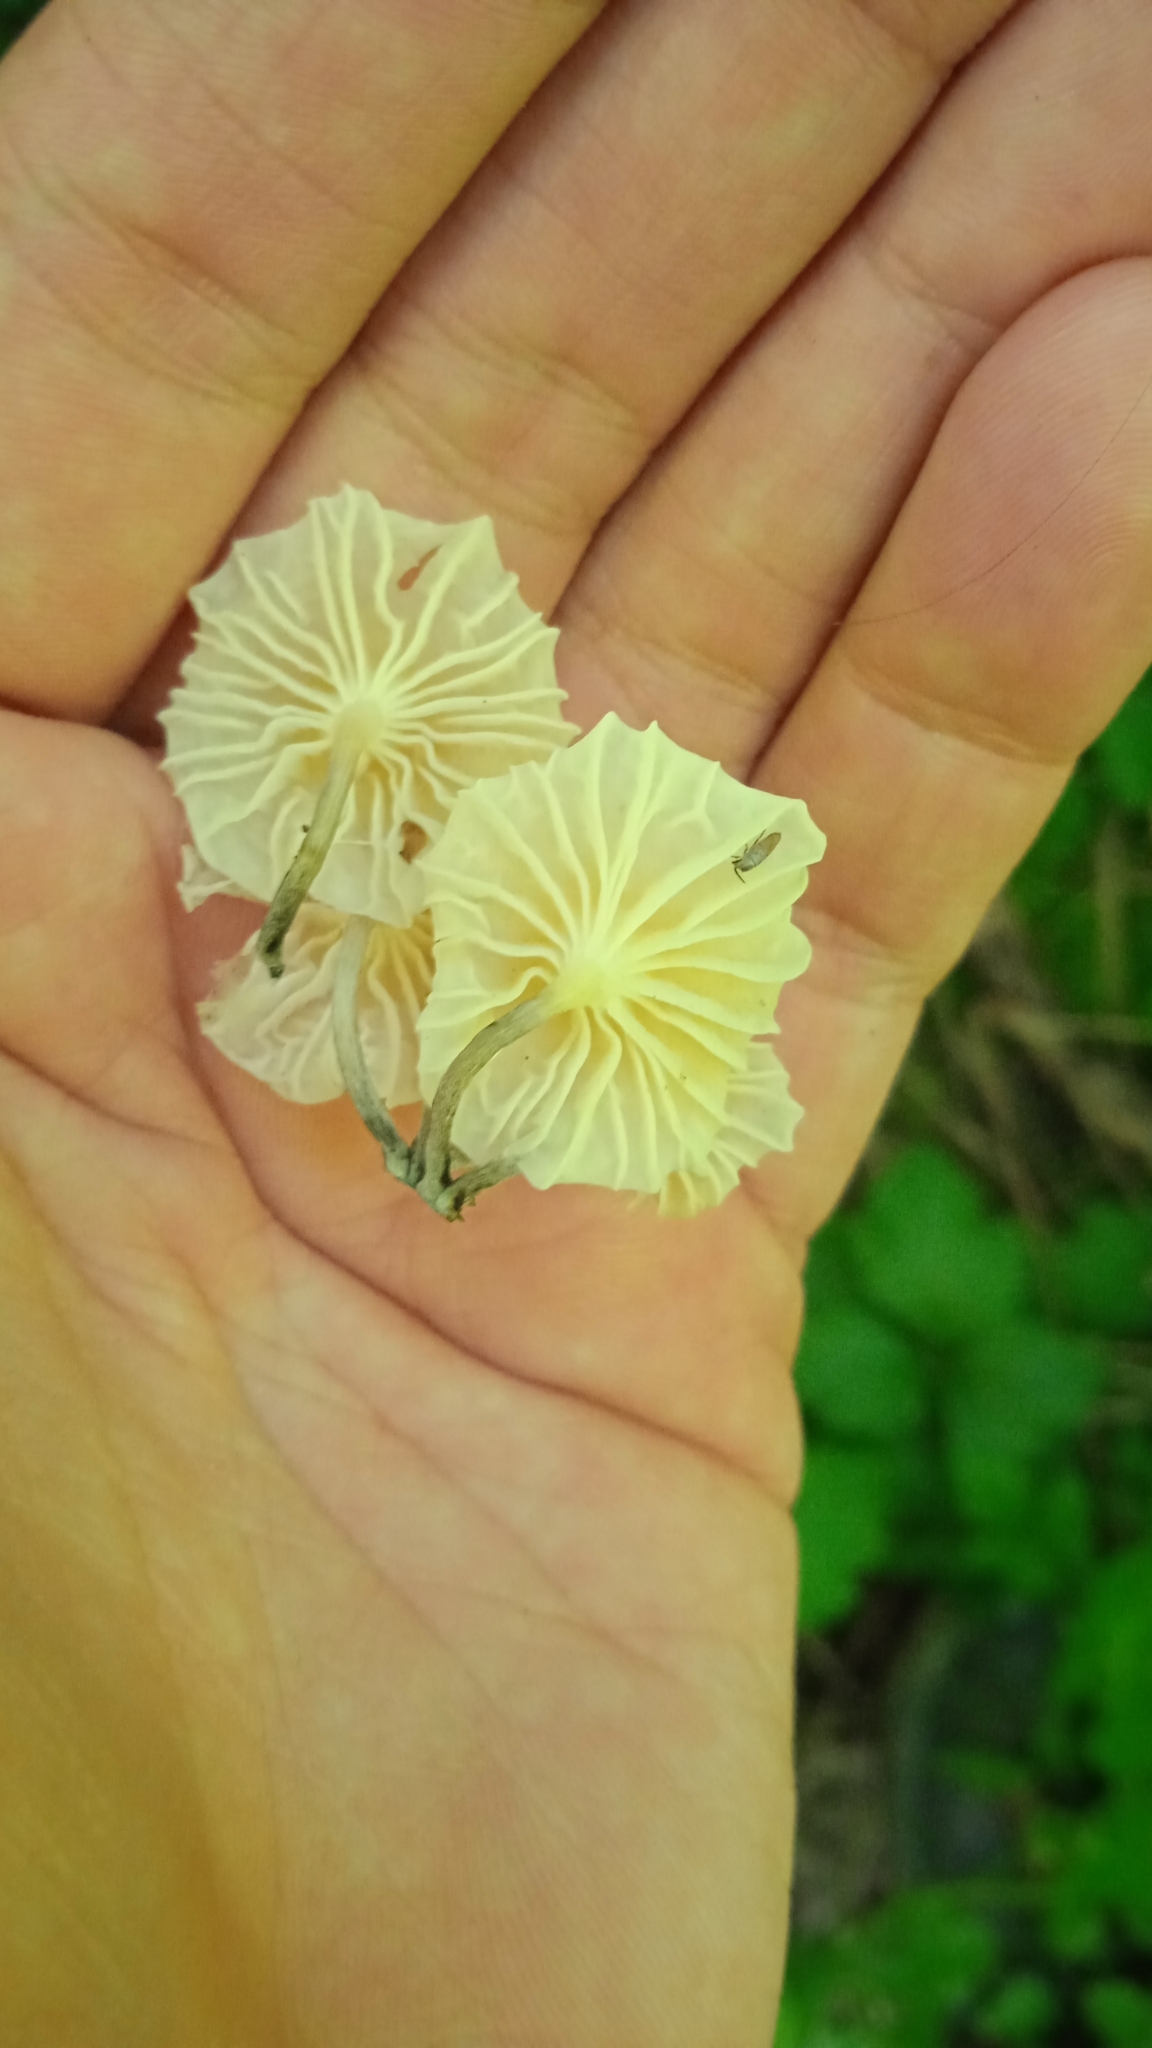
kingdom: Fungi
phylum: Basidiomycota
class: Agaricomycetes
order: Agaricales
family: Omphalotaceae
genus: Marasmiellus
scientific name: Marasmiellus candidus
